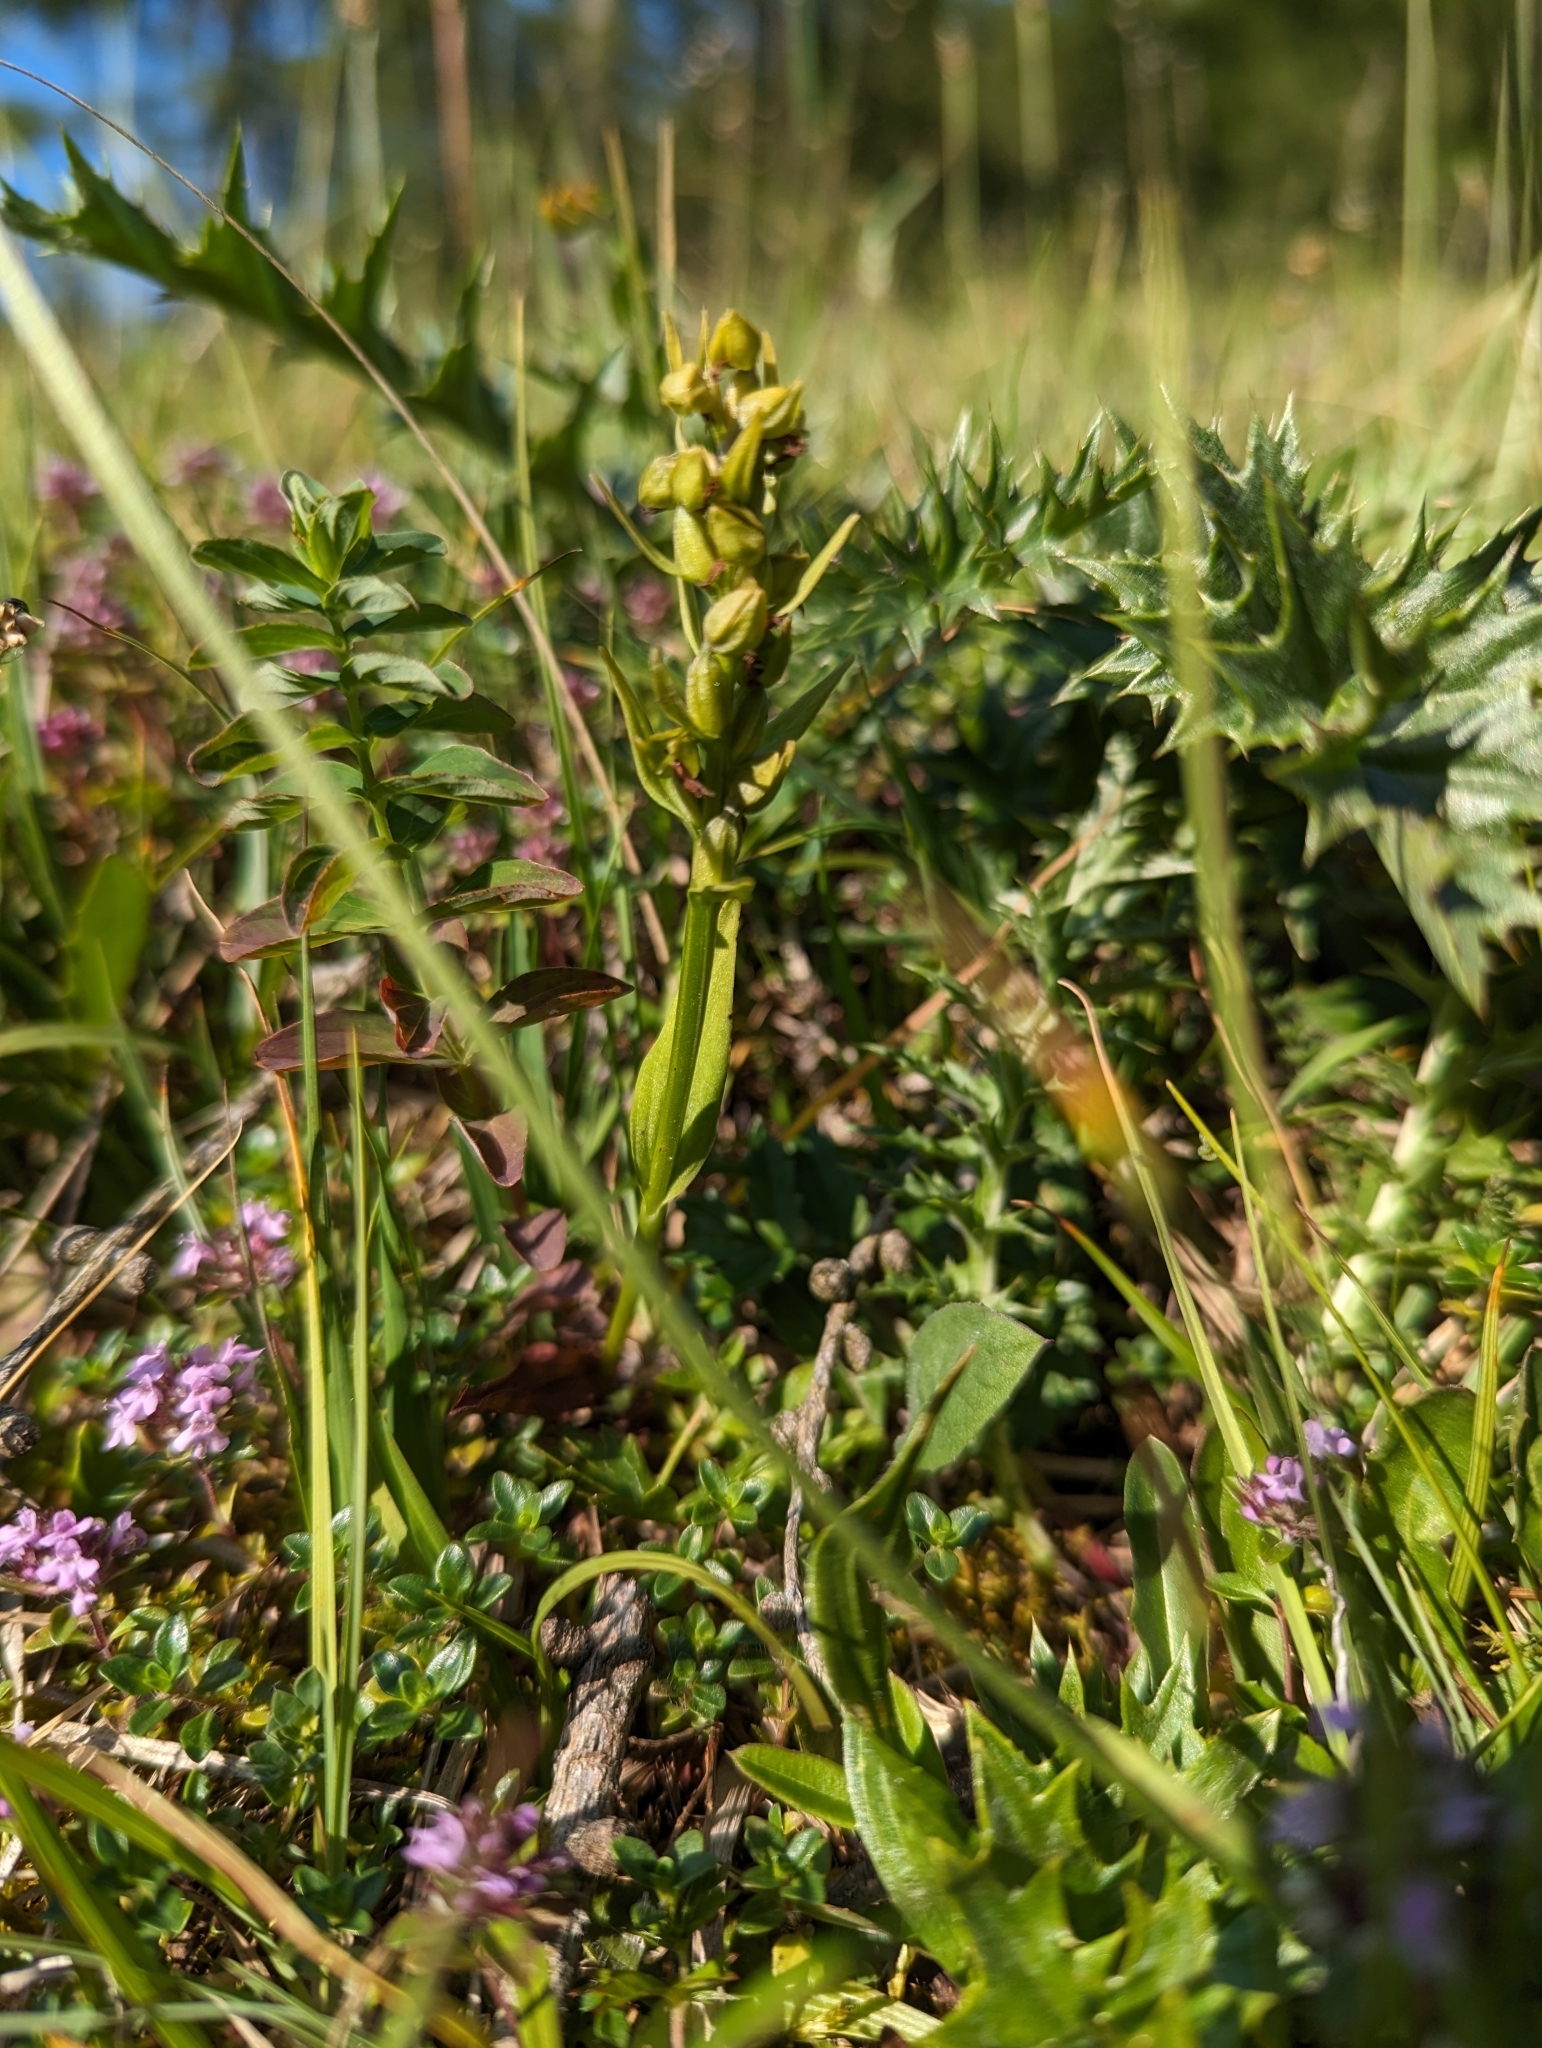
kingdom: Plantae
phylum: Tracheophyta
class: Liliopsida
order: Asparagales
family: Orchidaceae
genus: Dactylorhiza
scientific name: Dactylorhiza viridis
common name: Longbract frog orchid
